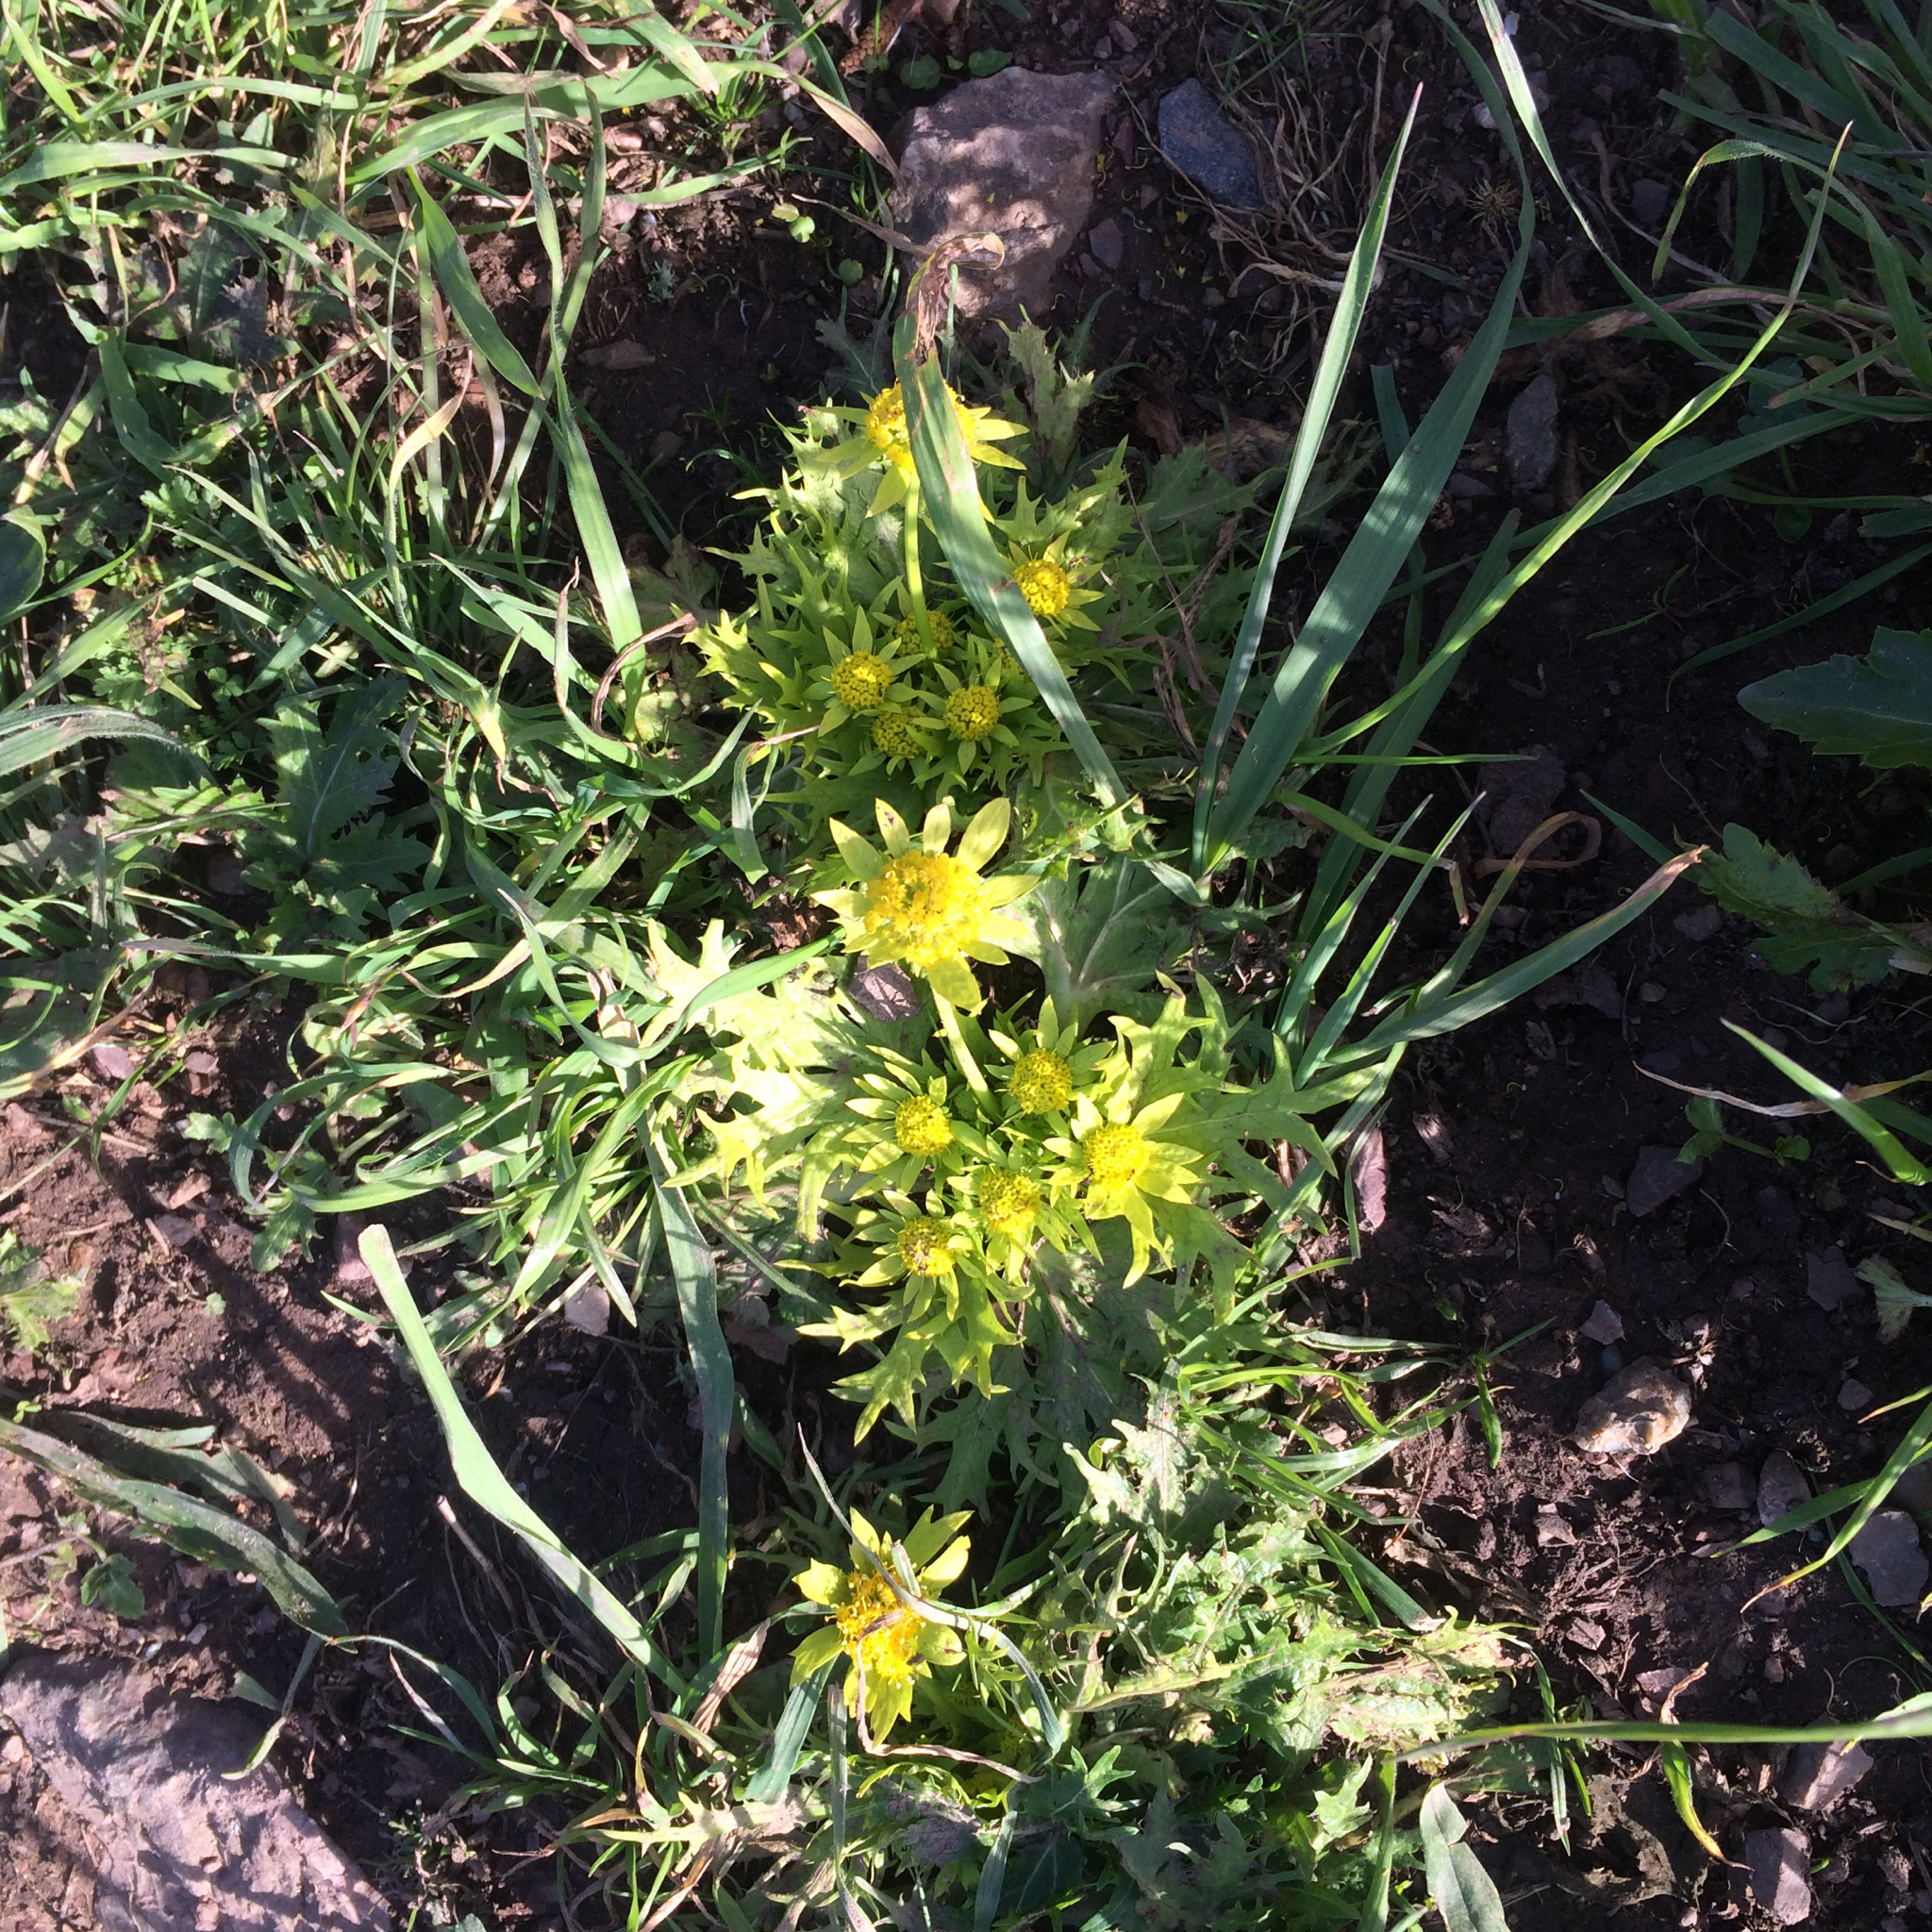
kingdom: Plantae
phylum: Tracheophyta
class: Magnoliopsida
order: Apiales
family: Apiaceae
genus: Sanicula
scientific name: Sanicula arctopoides
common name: Footsteps-of-spring
